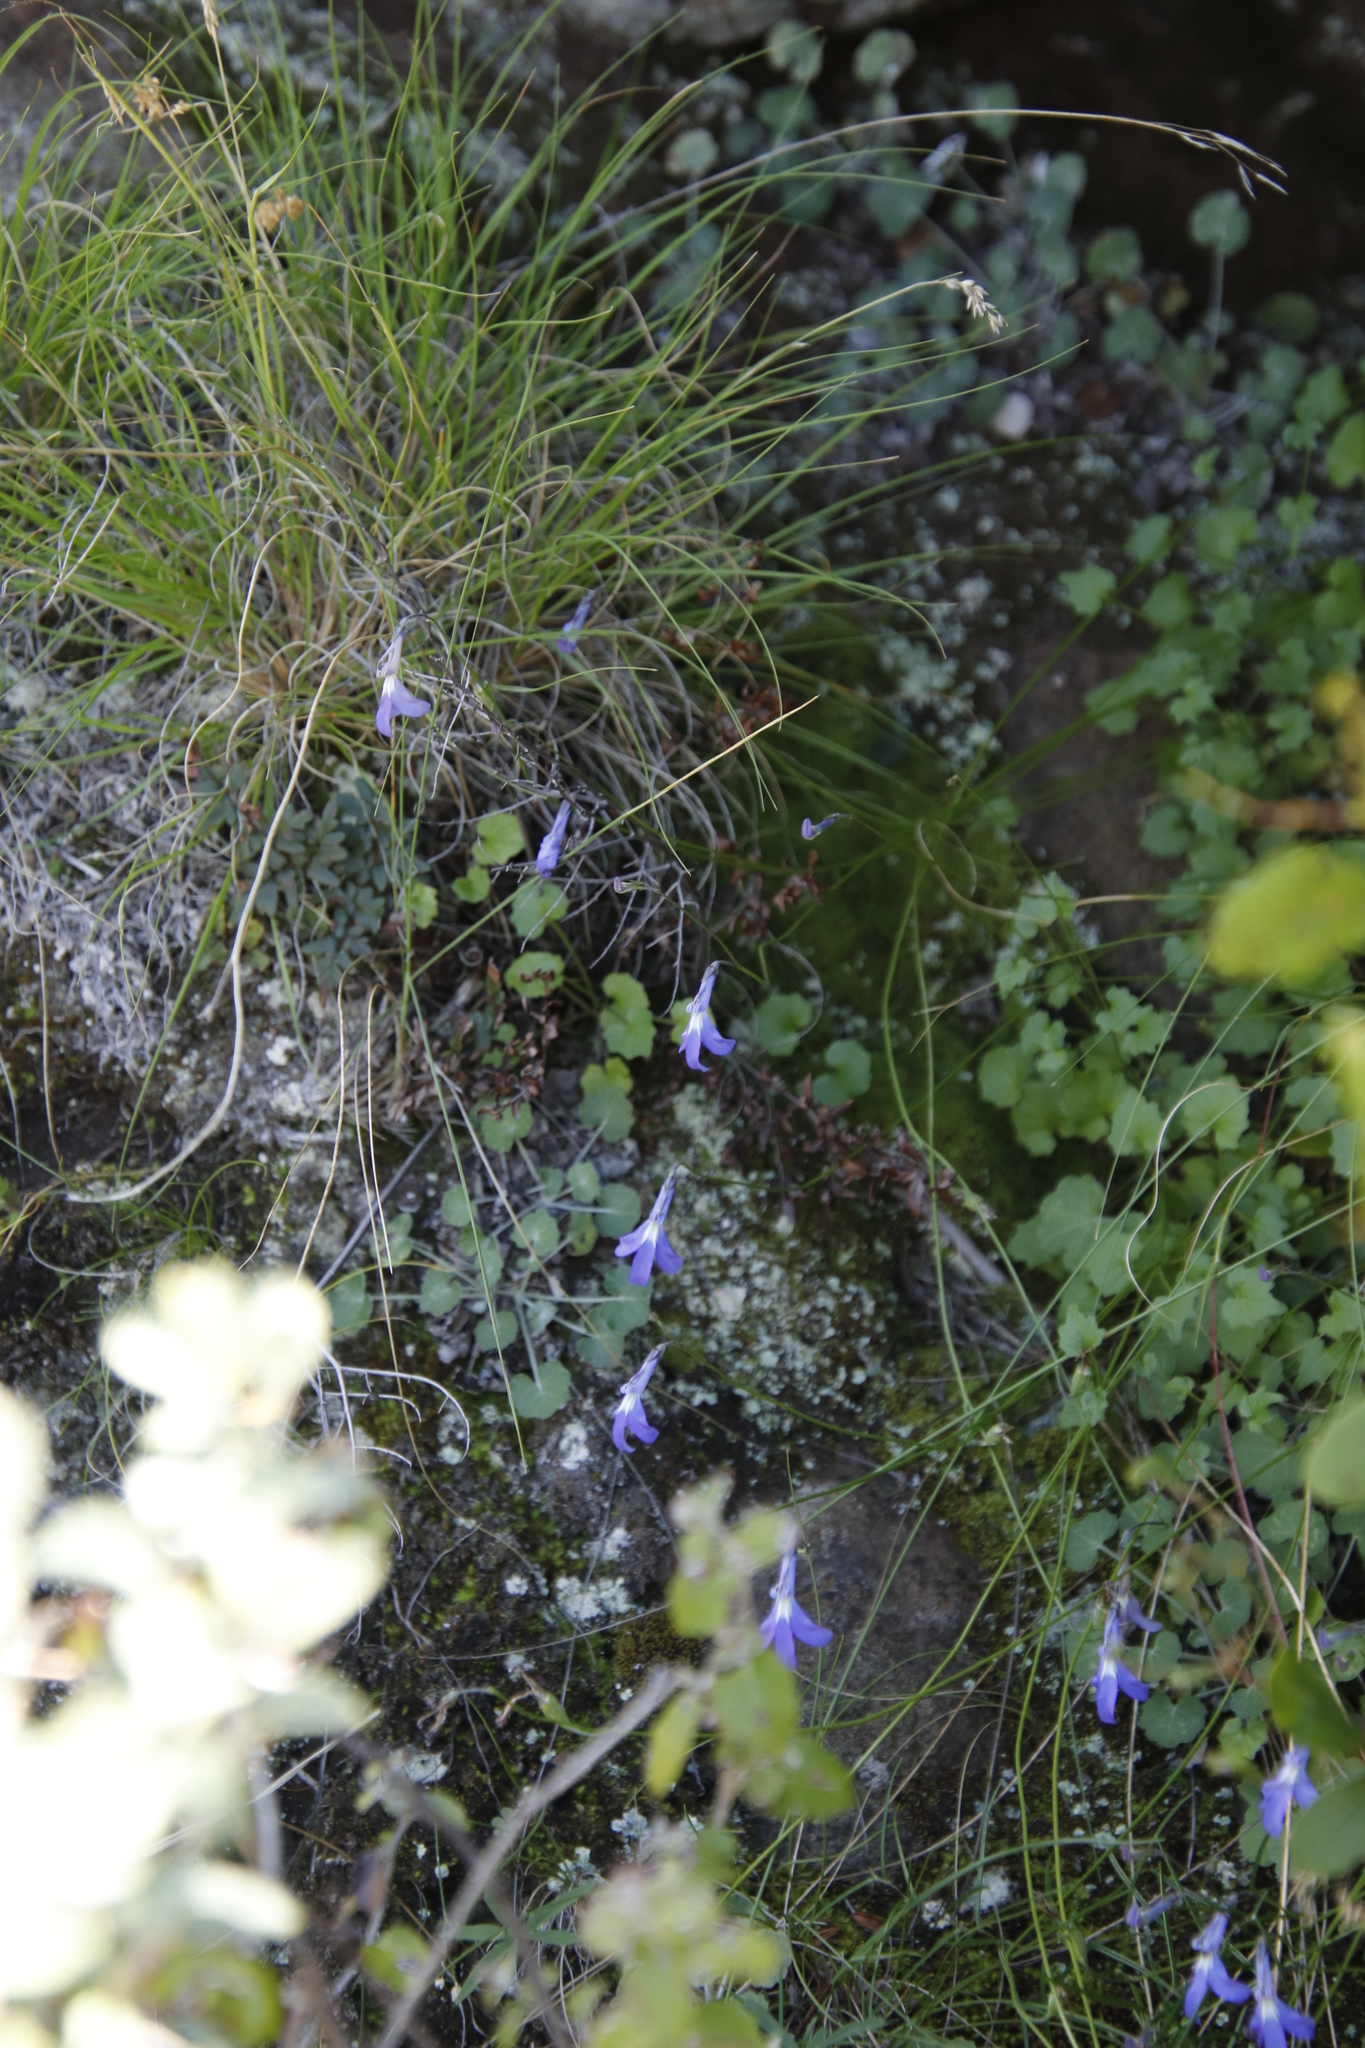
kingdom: Plantae
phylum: Tracheophyta
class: Magnoliopsida
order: Asterales
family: Campanulaceae
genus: Lobelia
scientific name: Lobelia preslii
